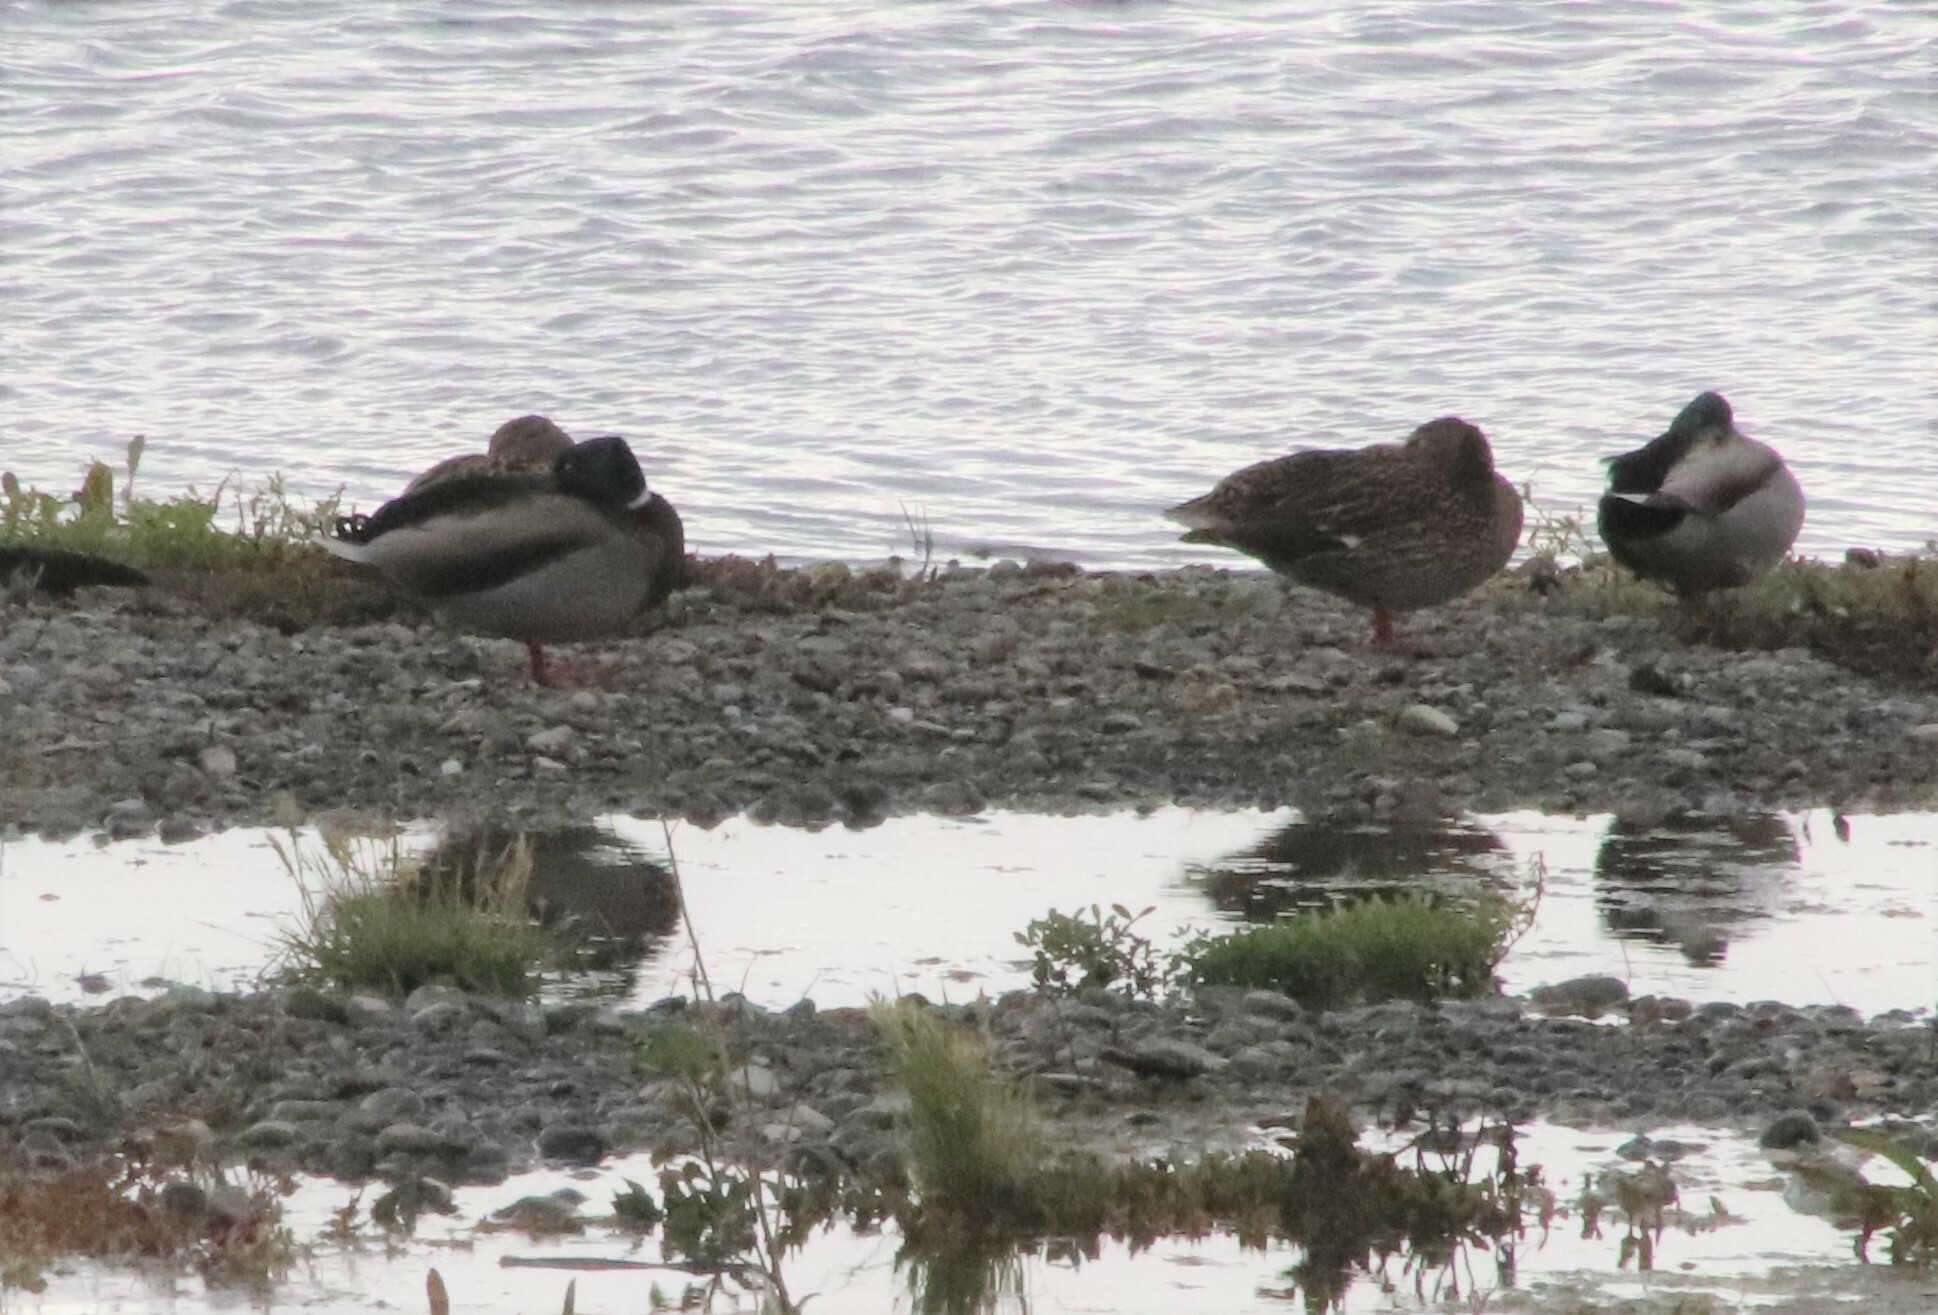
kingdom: Animalia
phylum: Chordata
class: Aves
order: Anseriformes
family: Anatidae
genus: Anas
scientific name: Anas platyrhynchos
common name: Mallard
